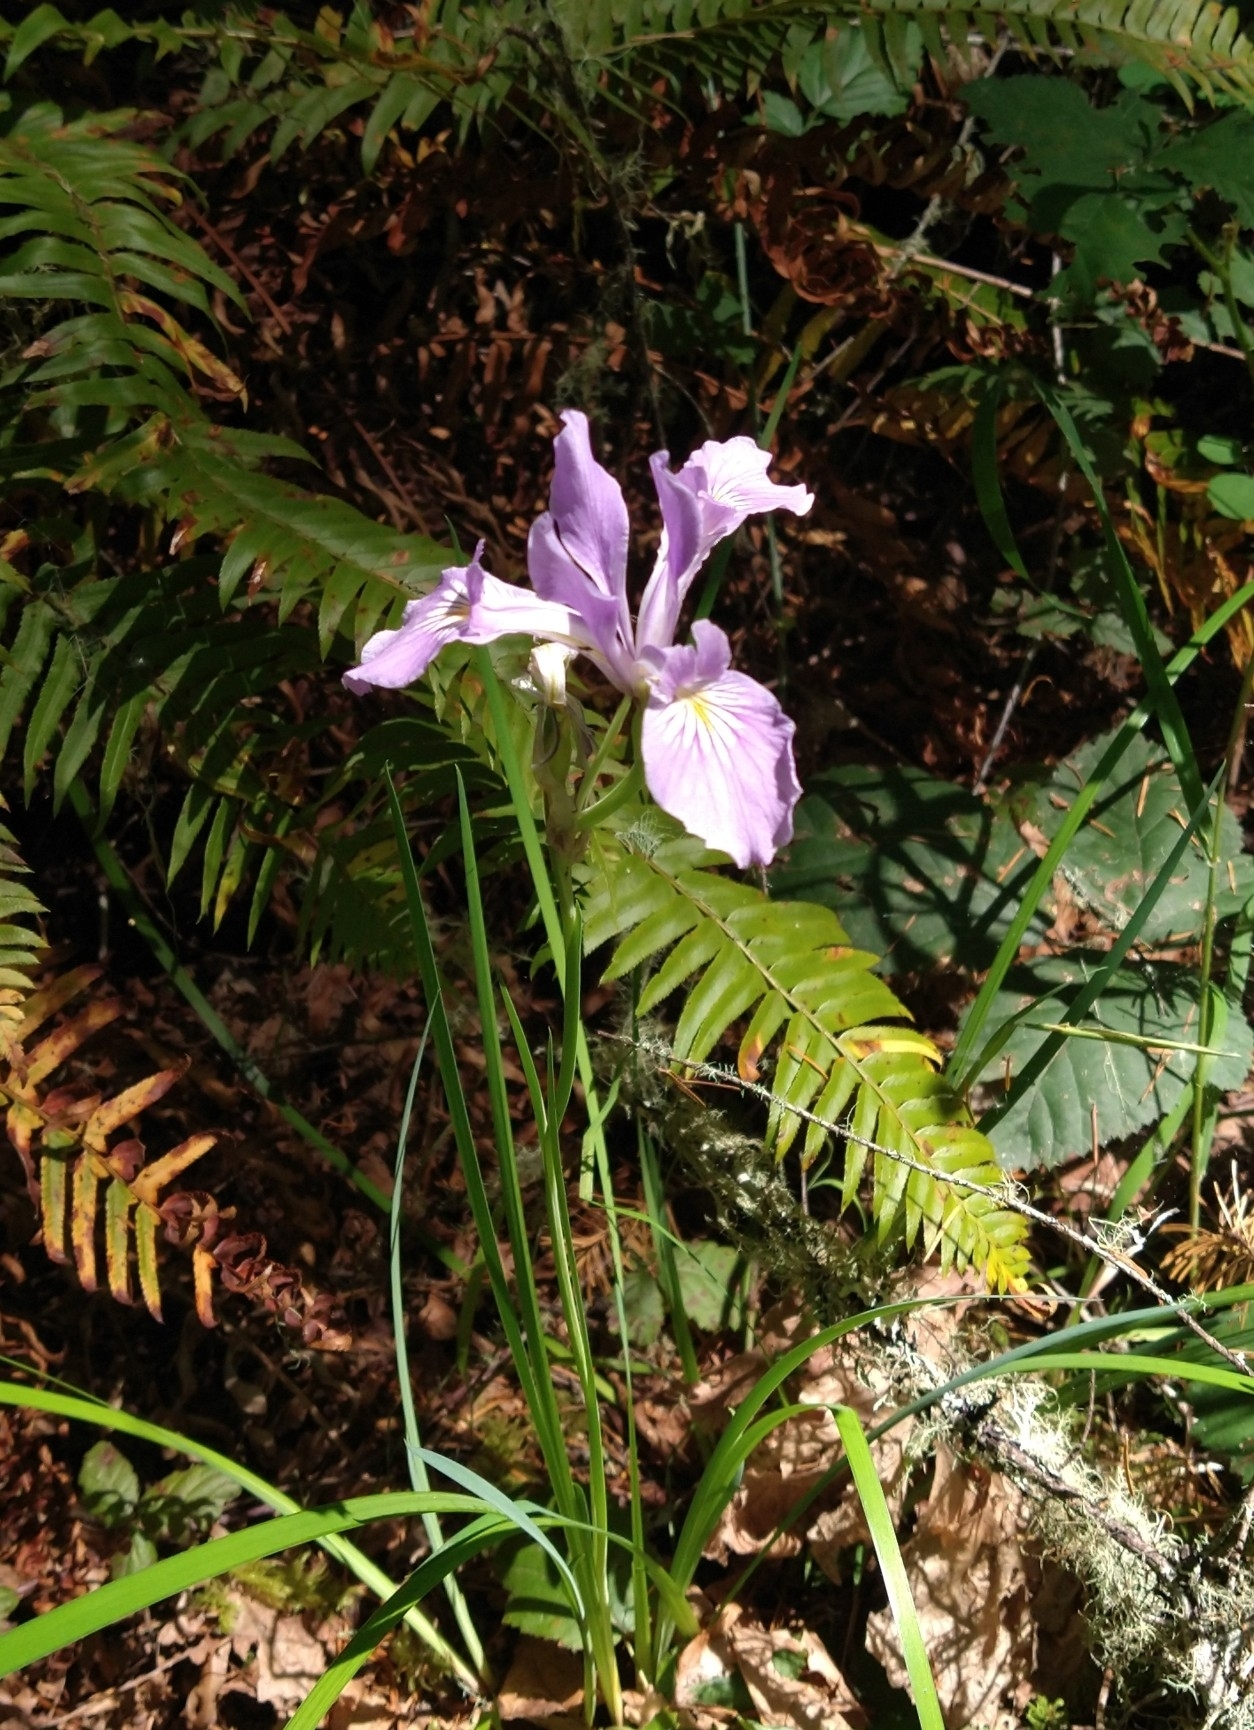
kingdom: Plantae
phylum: Tracheophyta
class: Liliopsida
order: Asparagales
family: Iridaceae
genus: Iris
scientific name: Iris tenax
